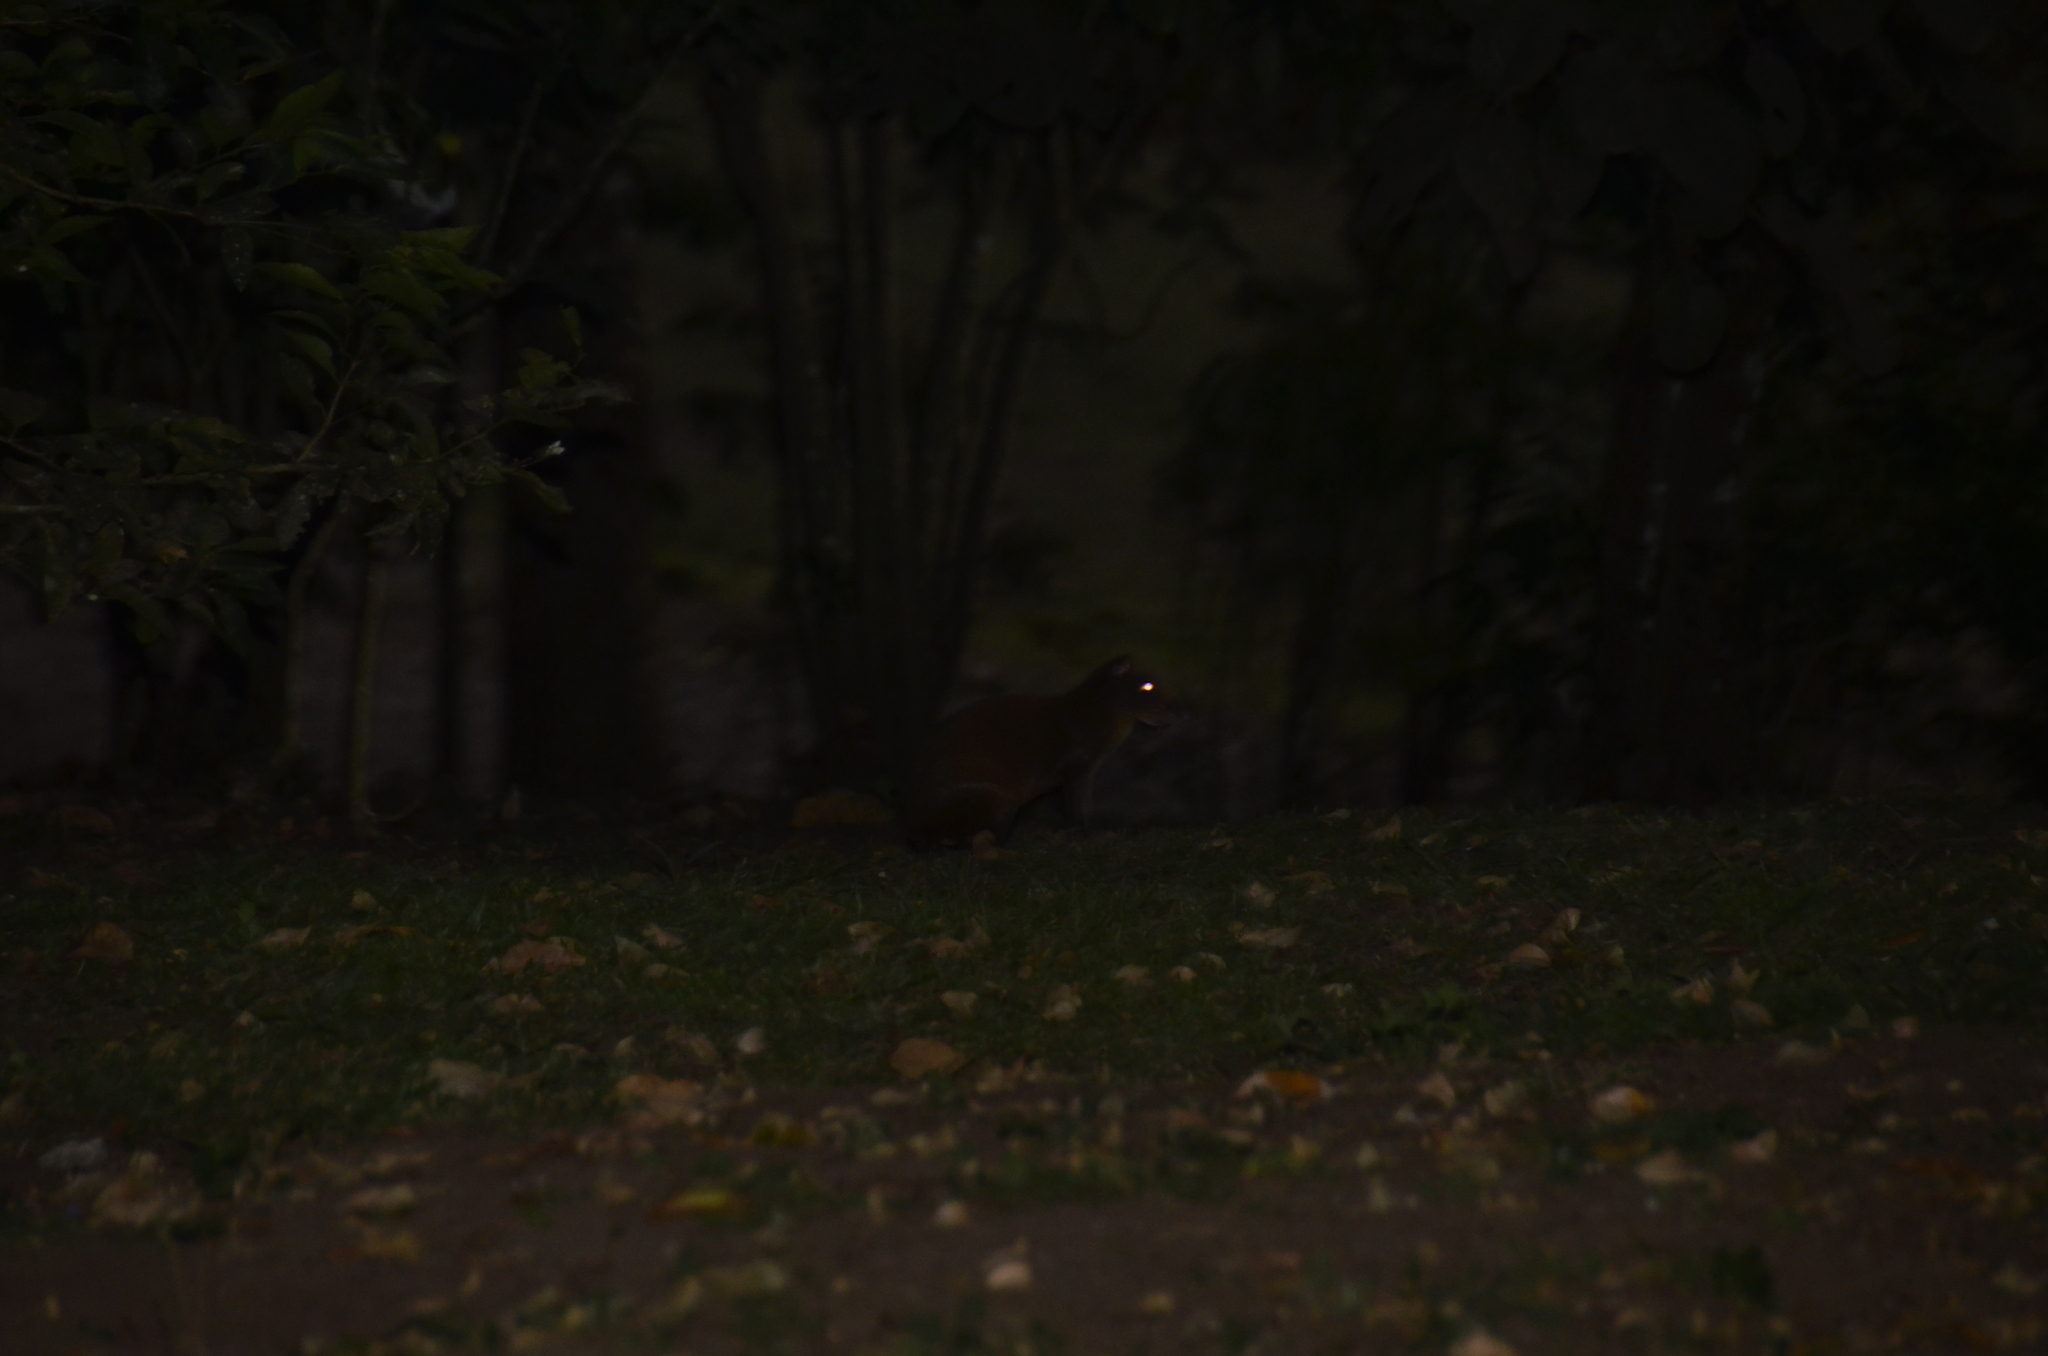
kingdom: Animalia
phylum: Chordata
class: Mammalia
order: Rodentia
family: Dasyproctidae
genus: Dasyprocta
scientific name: Dasyprocta punctata
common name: Central american agouti
